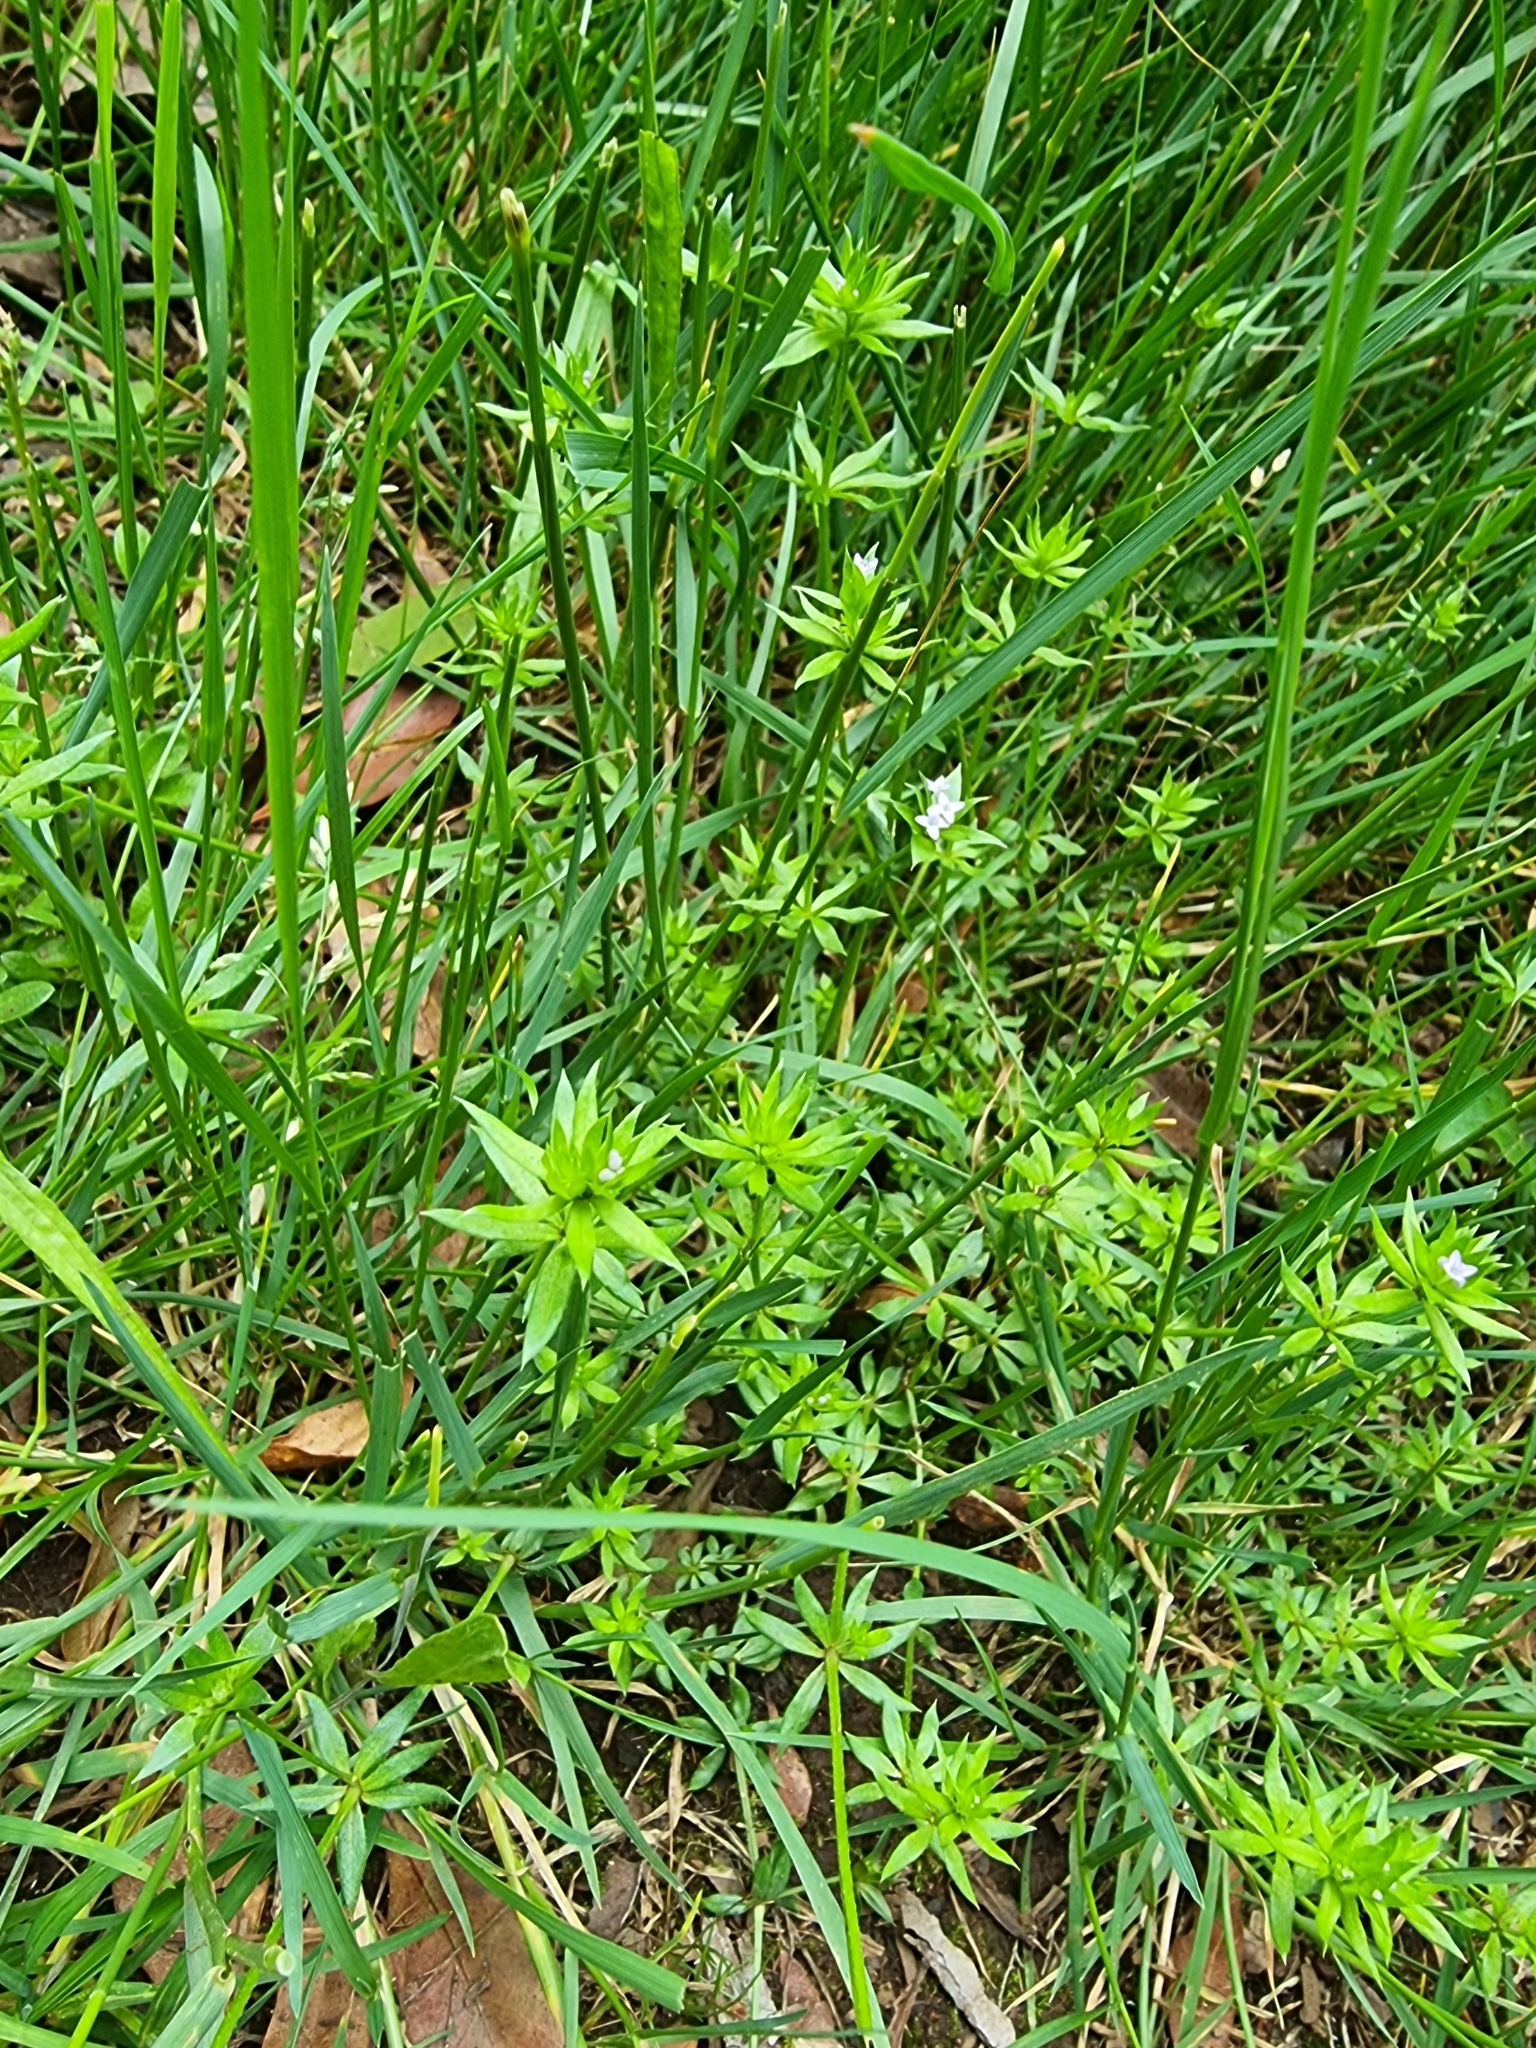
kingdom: Plantae
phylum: Tracheophyta
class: Magnoliopsida
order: Gentianales
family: Rubiaceae
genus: Sherardia
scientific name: Sherardia arvensis
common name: Field madder
